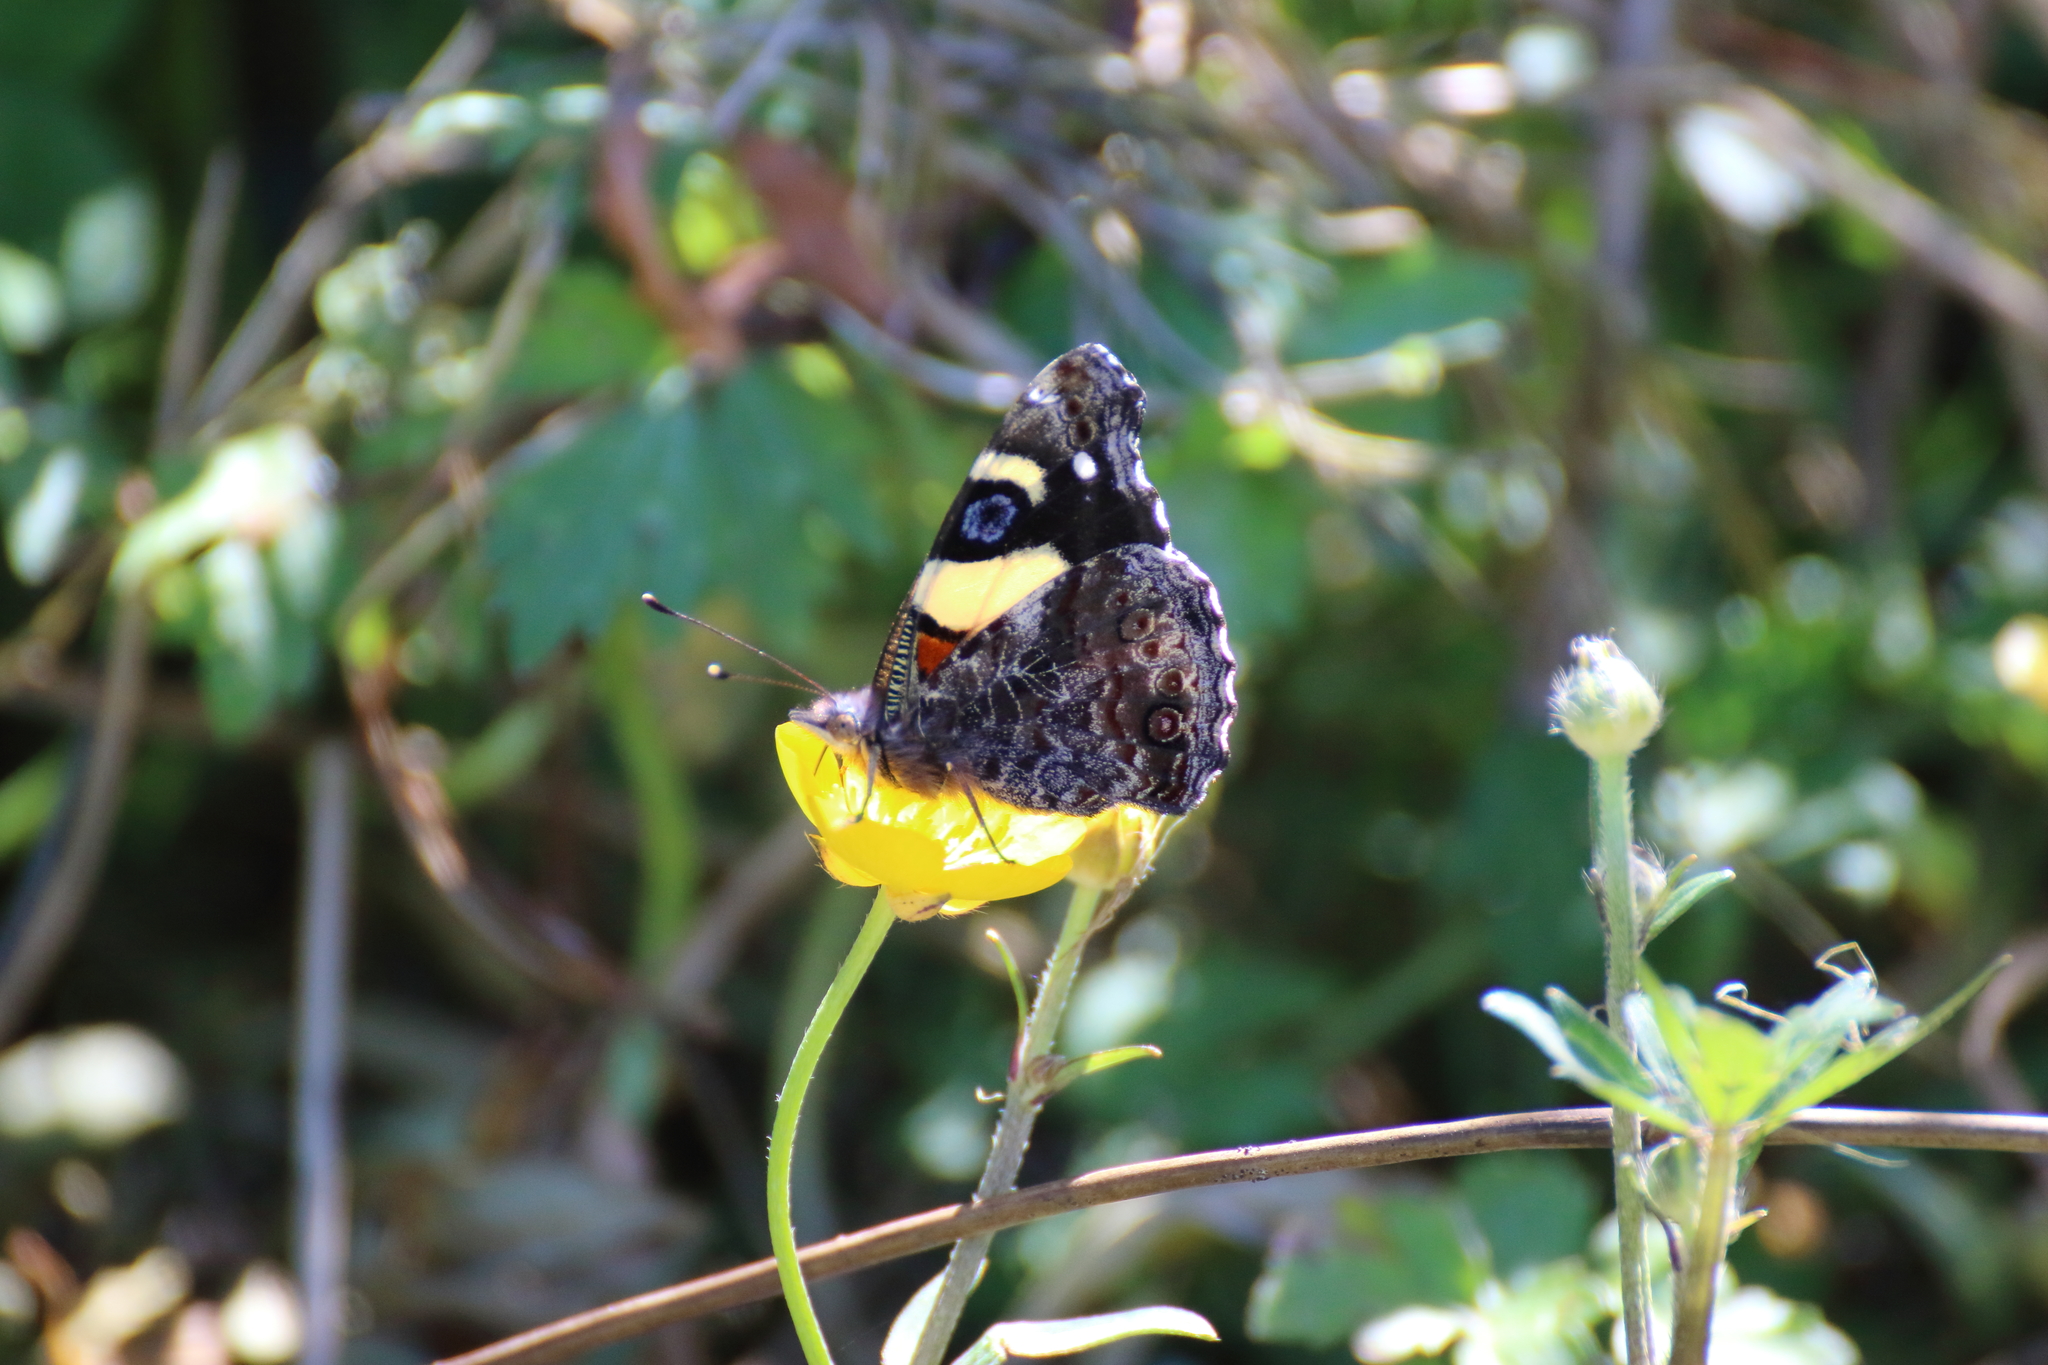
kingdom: Animalia
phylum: Arthropoda
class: Insecta
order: Lepidoptera
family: Nymphalidae
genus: Vanessa
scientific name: Vanessa itea
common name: Yellow admiral
